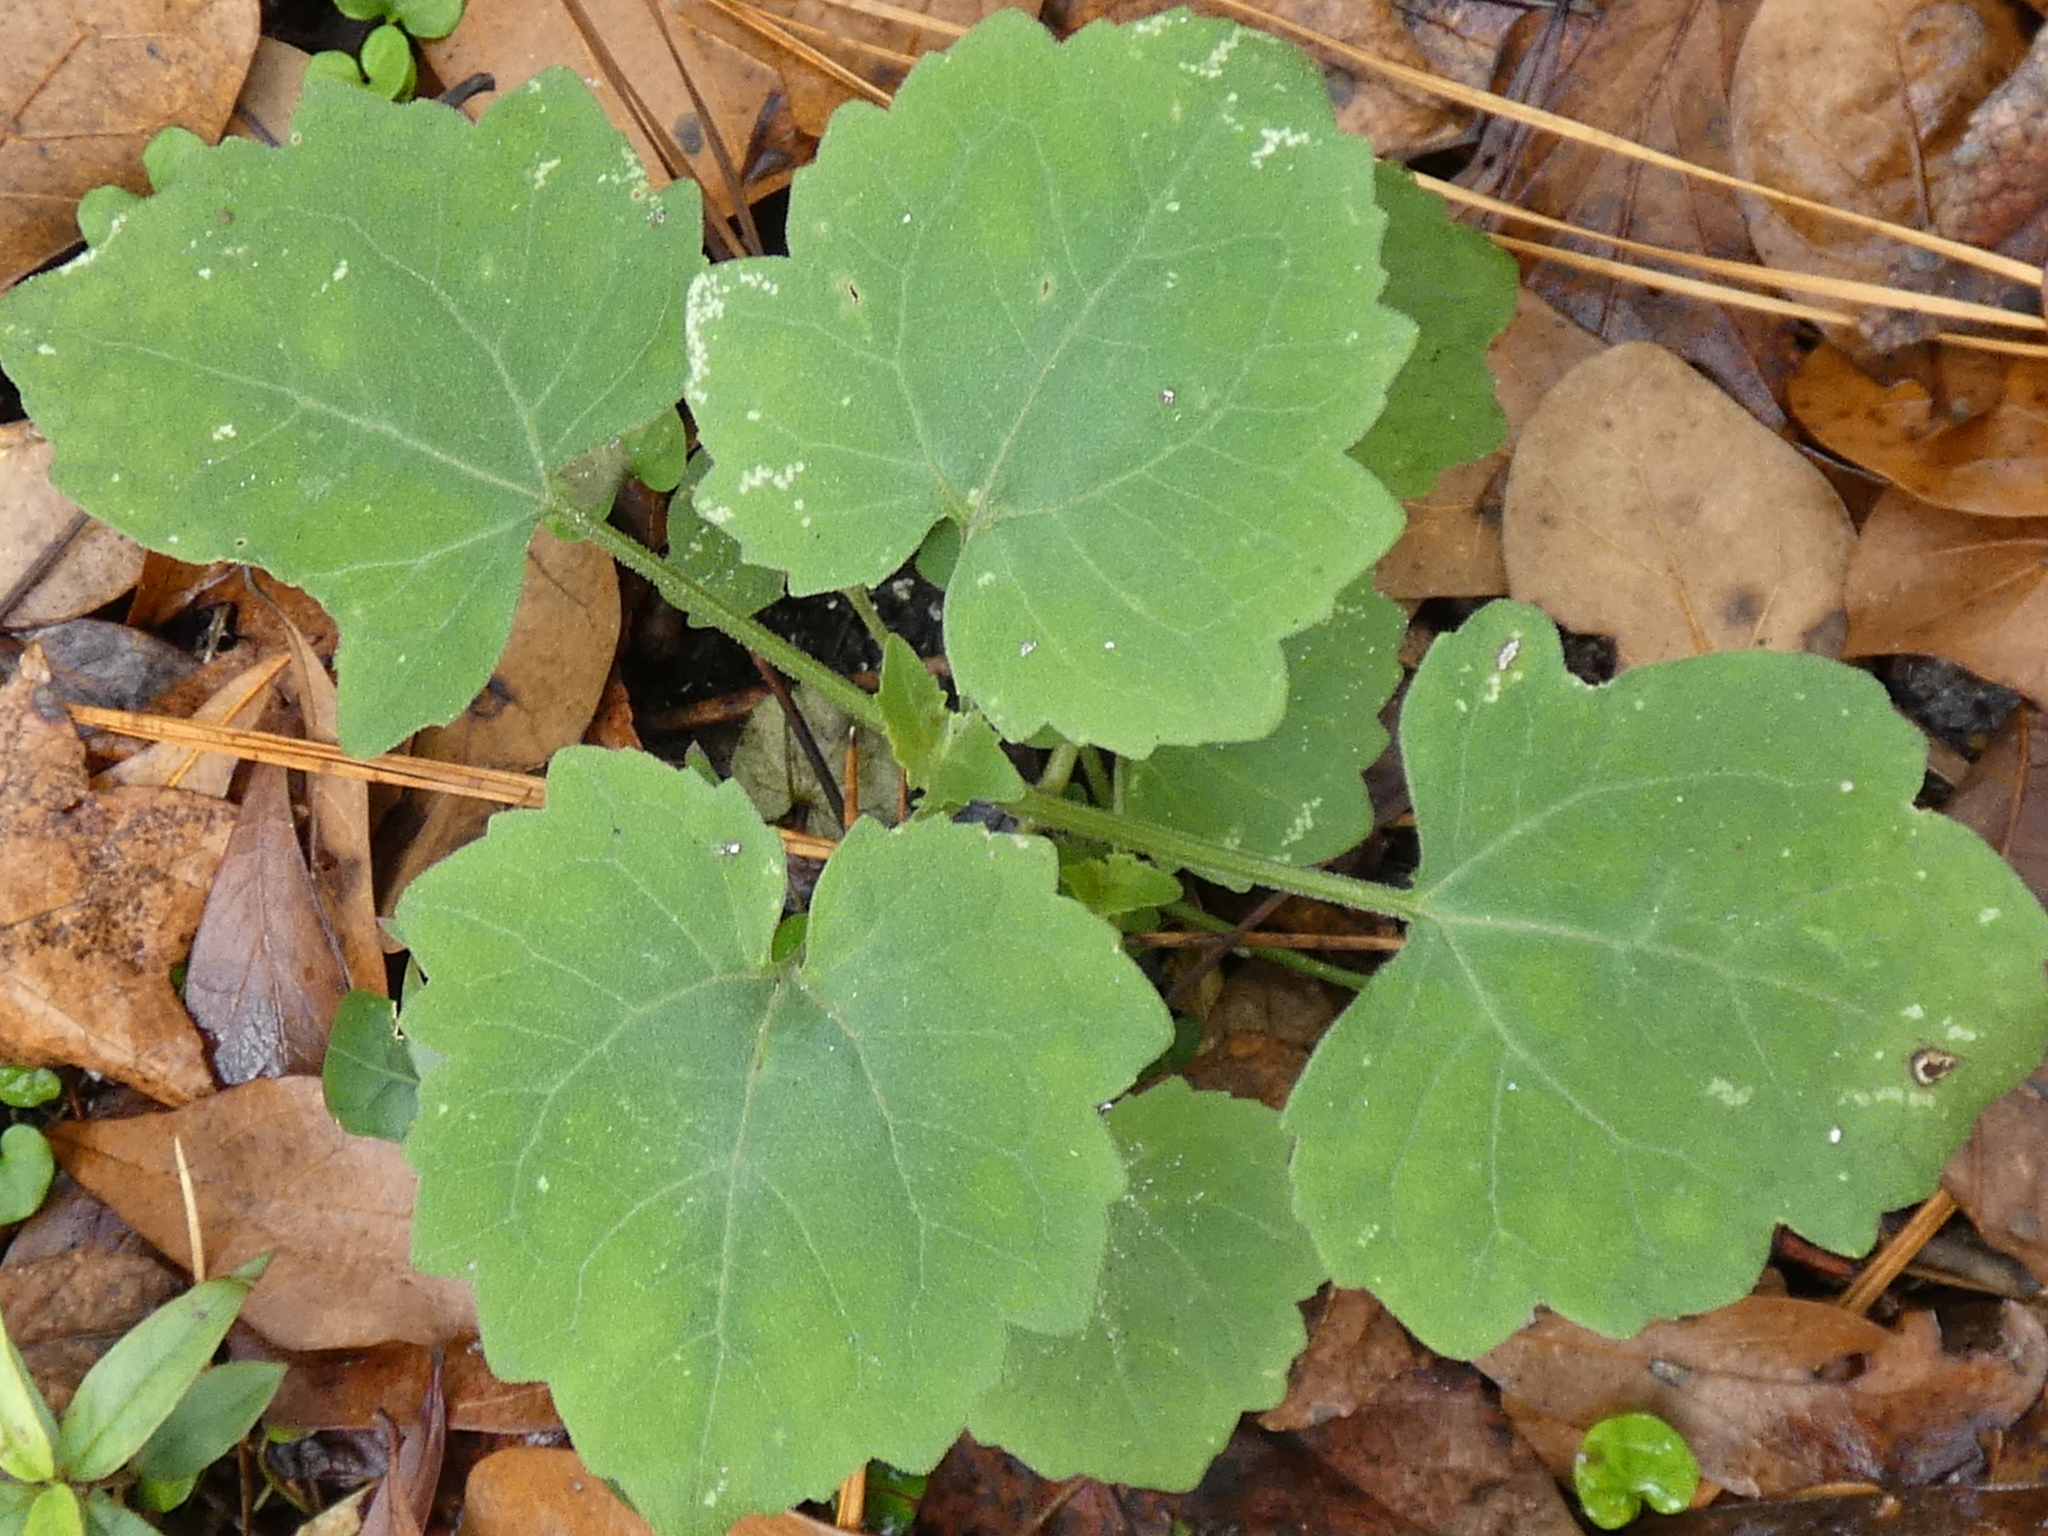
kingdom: Plantae
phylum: Tracheophyta
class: Magnoliopsida
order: Asterales
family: Asteraceae
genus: Mikania
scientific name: Mikania cordifolia
